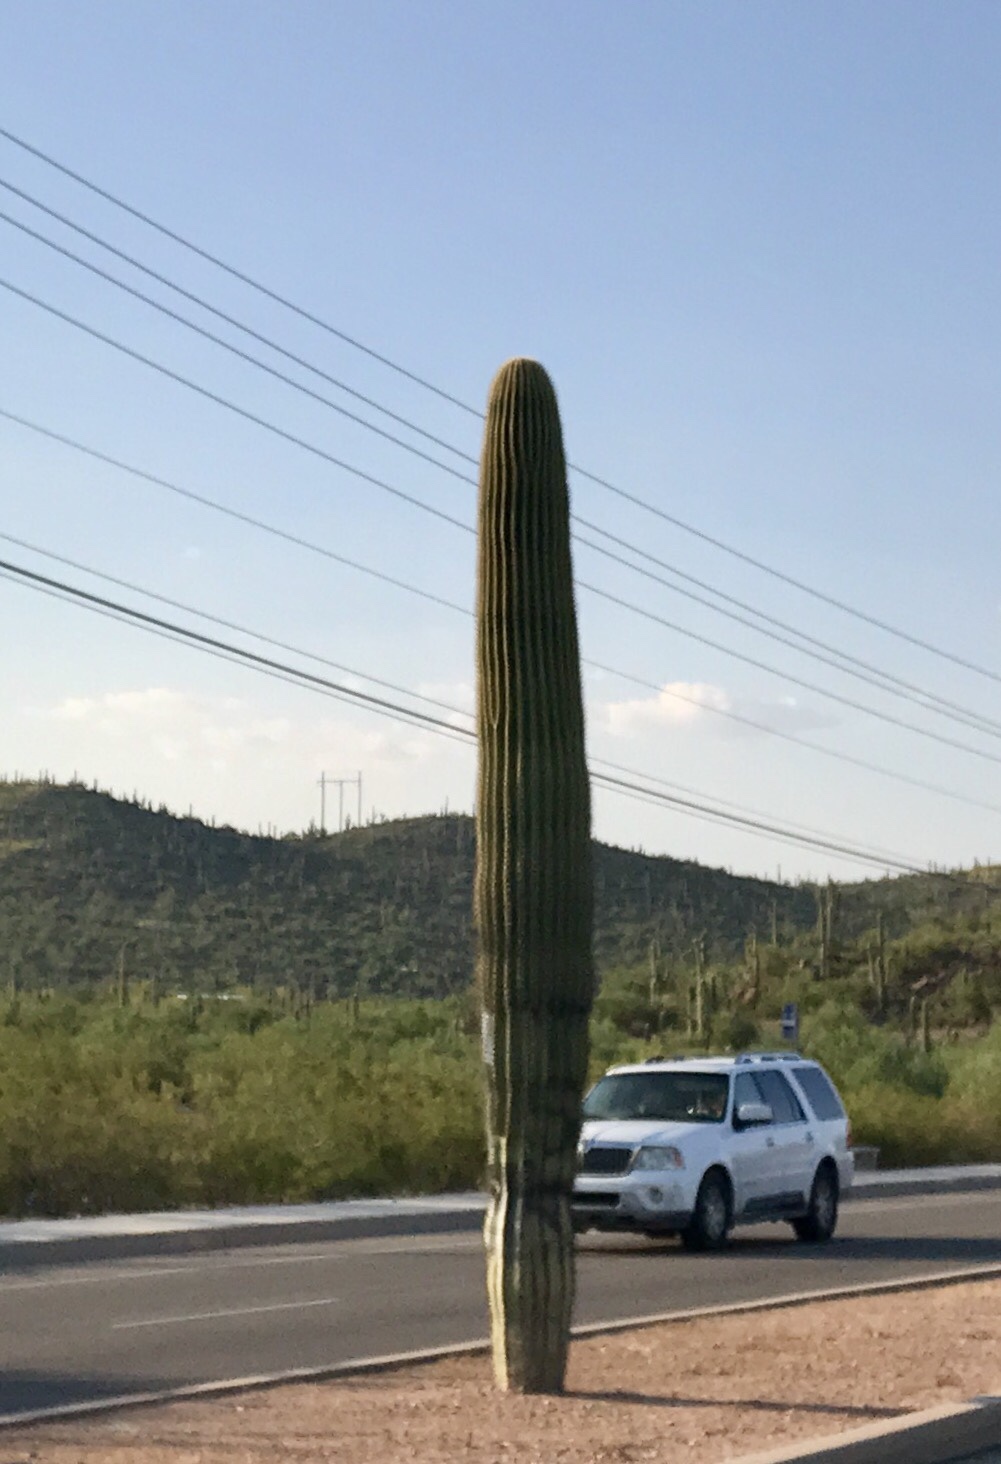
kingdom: Plantae
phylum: Tracheophyta
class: Magnoliopsida
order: Caryophyllales
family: Cactaceae
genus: Carnegiea
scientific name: Carnegiea gigantea
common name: Saguaro
